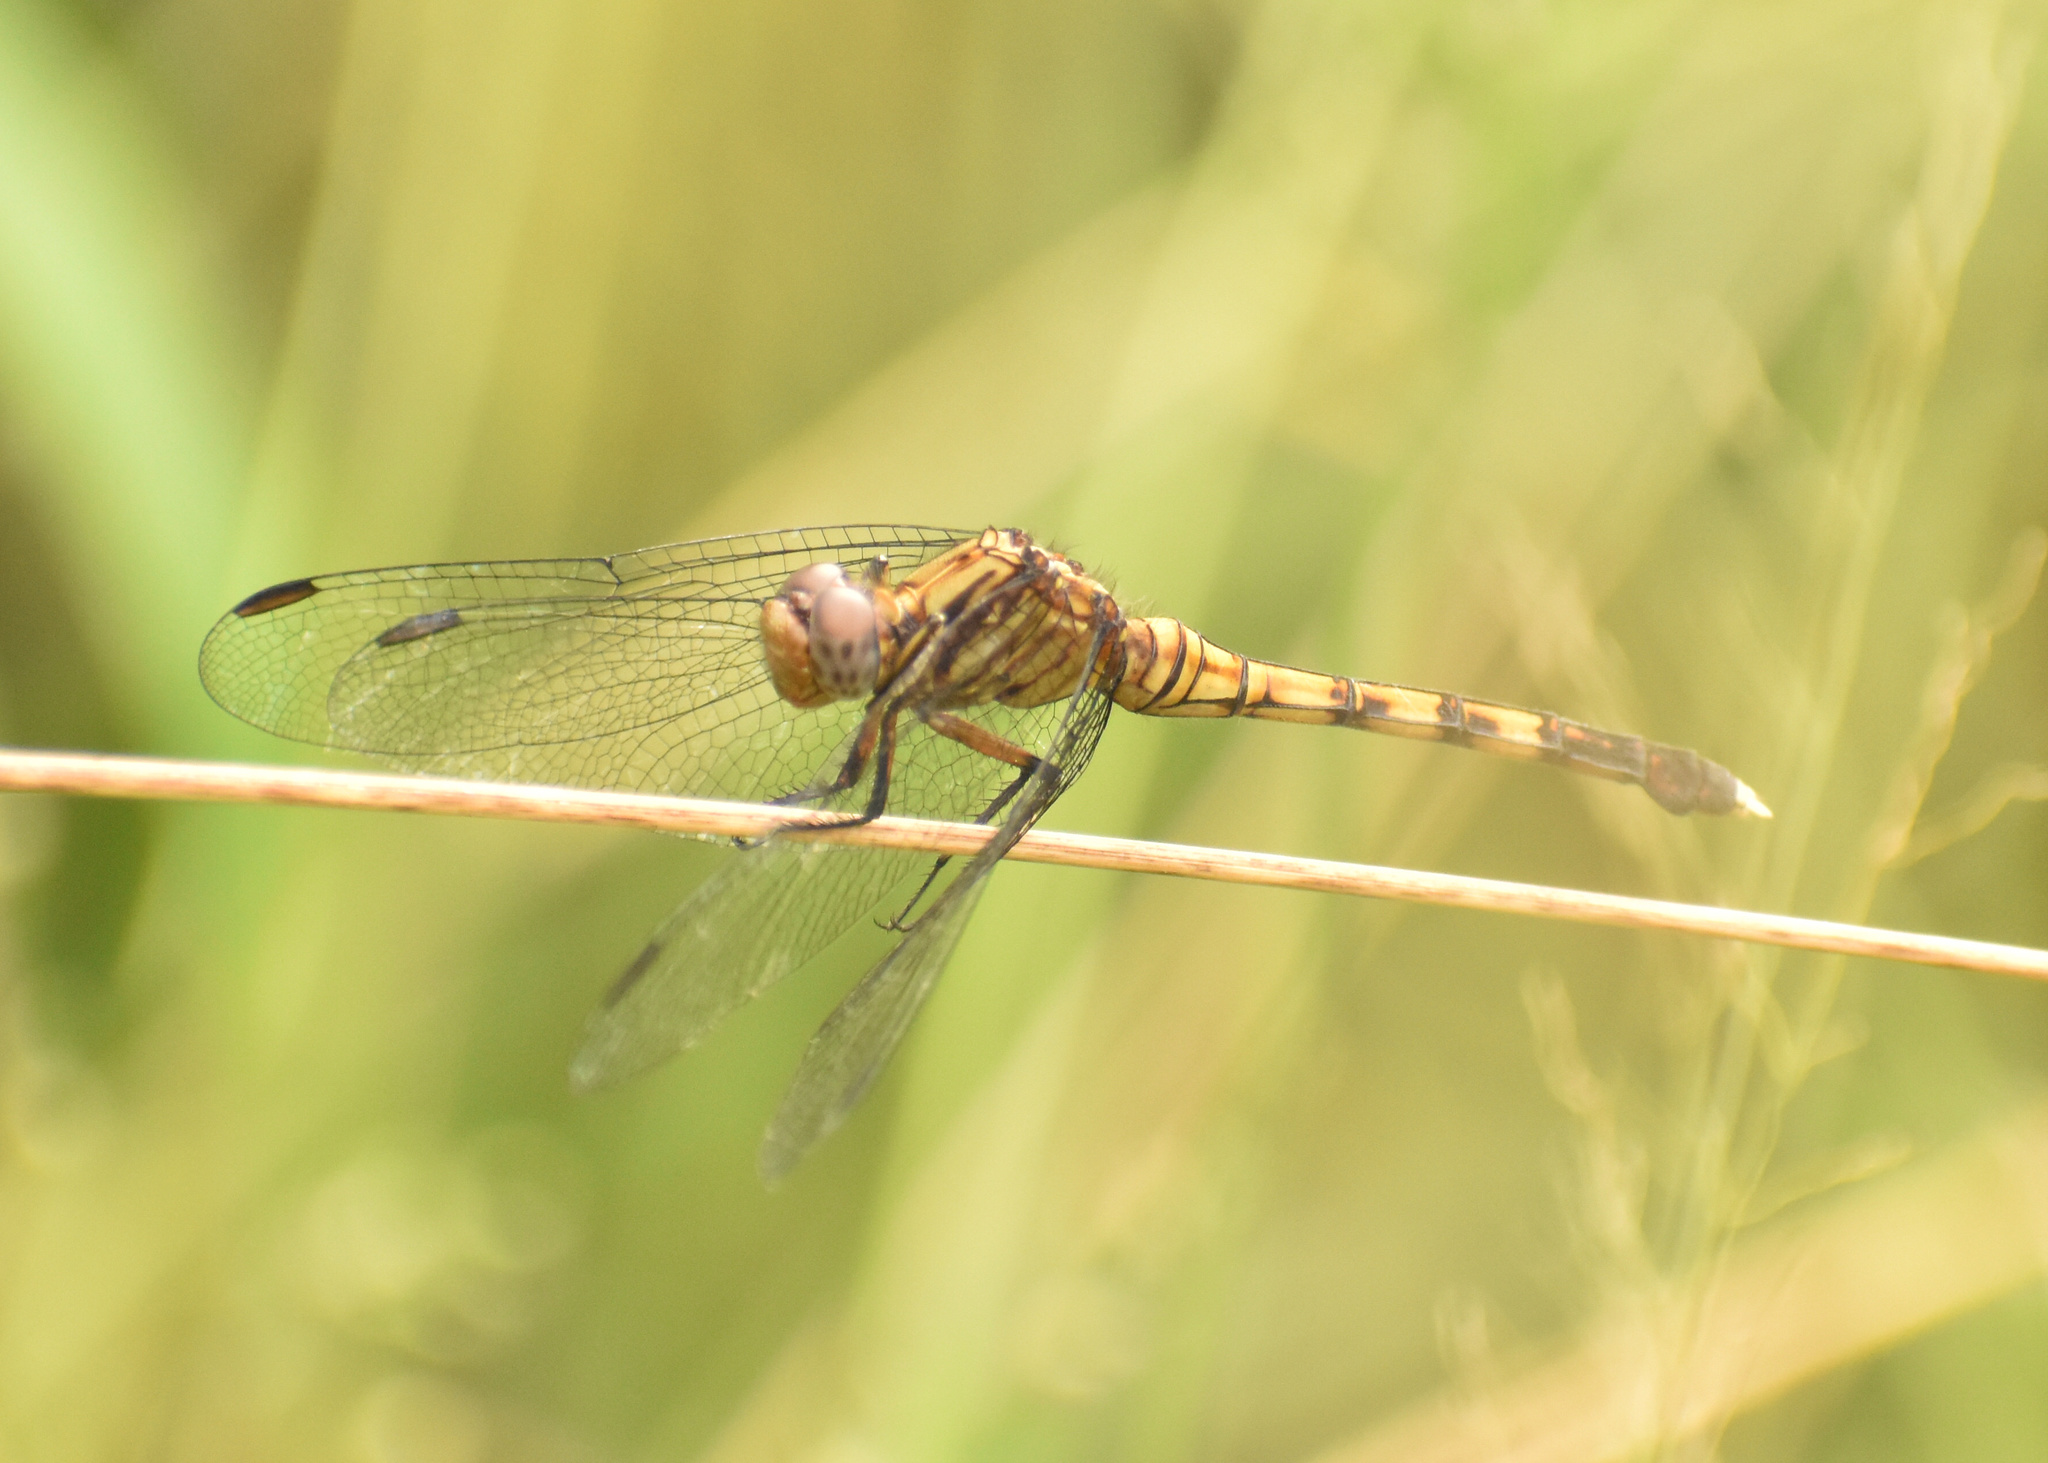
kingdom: Animalia
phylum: Arthropoda
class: Insecta
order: Odonata
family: Libellulidae
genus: Orthetrum
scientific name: Orthetrum julia
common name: Julia skimmer
